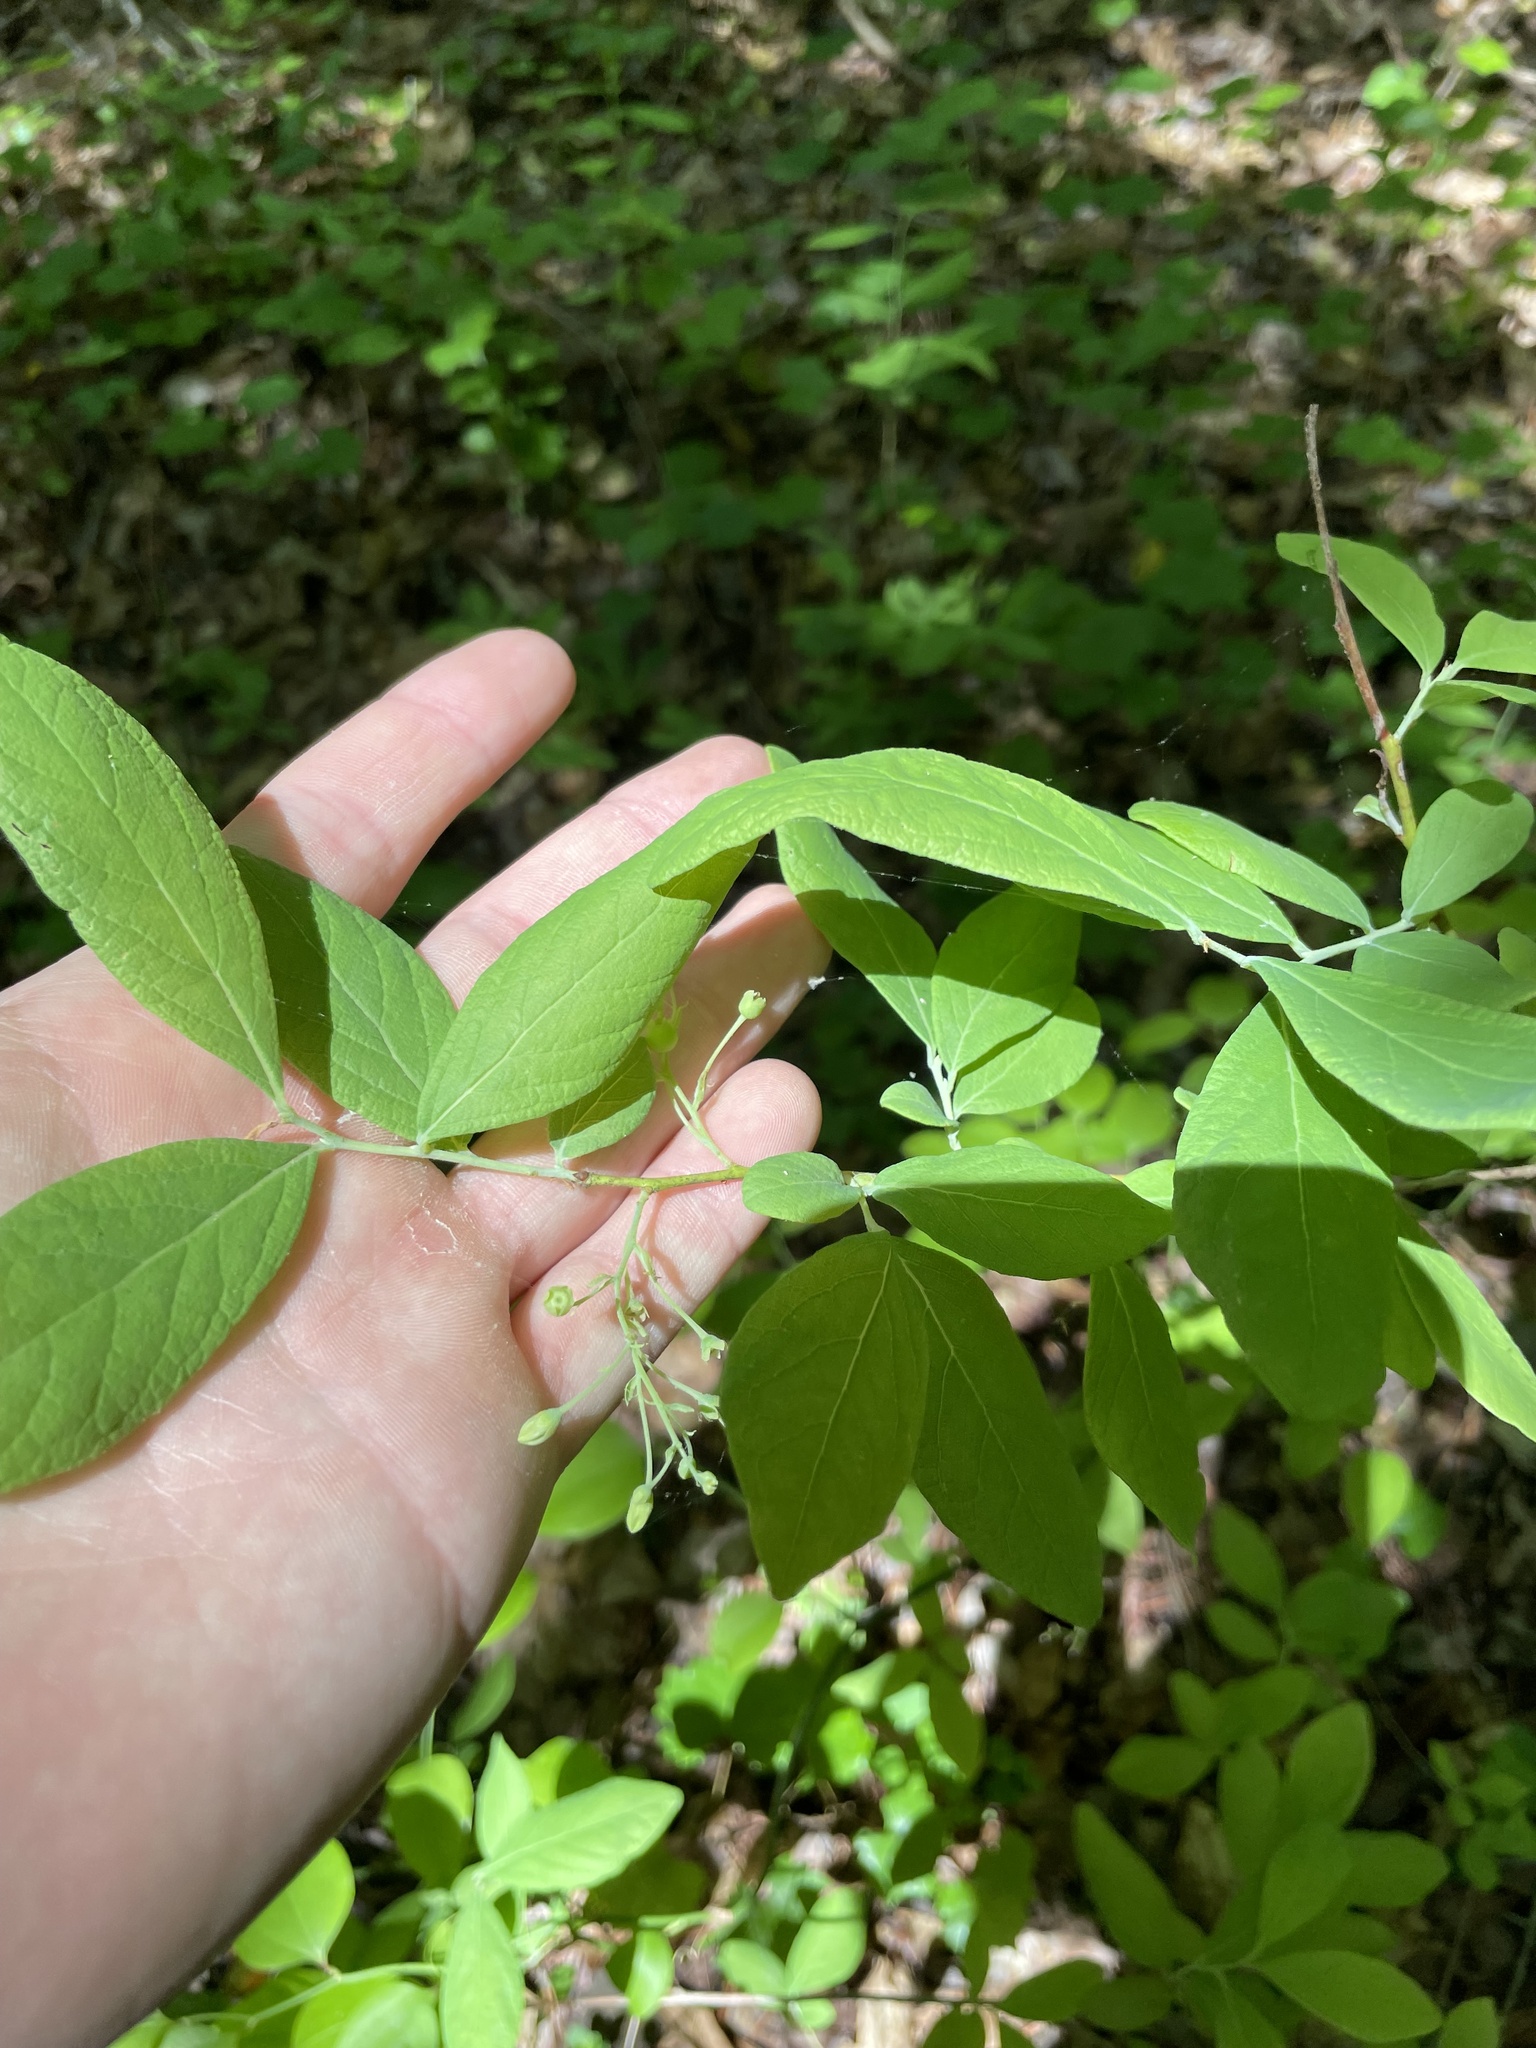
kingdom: Plantae
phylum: Tracheophyta
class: Magnoliopsida
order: Ericales
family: Ericaceae
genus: Gaylussacia
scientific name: Gaylussacia frondosa
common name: Dangleberry
